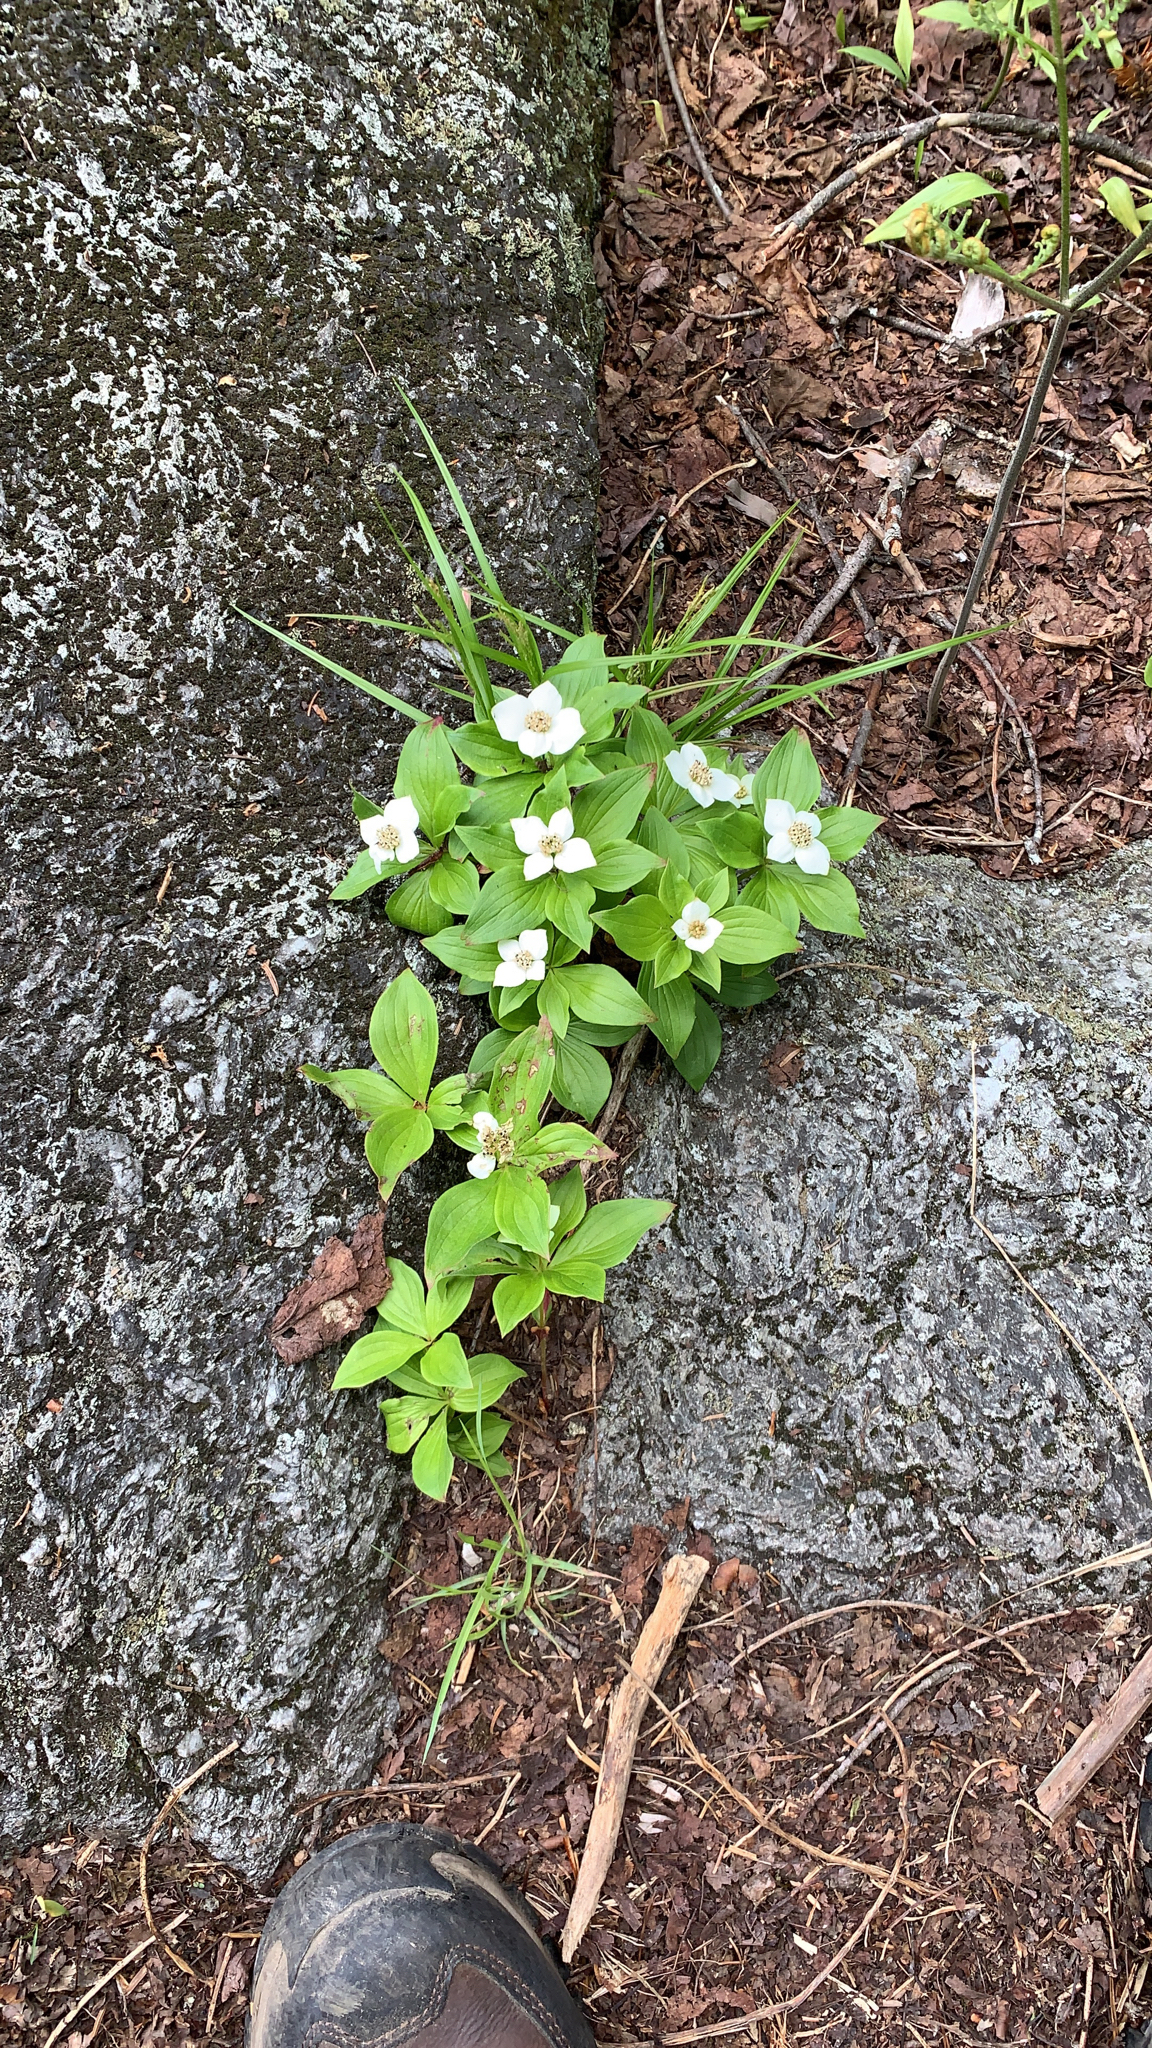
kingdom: Plantae
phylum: Tracheophyta
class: Magnoliopsida
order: Cornales
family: Cornaceae
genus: Cornus
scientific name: Cornus canadensis
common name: Creeping dogwood
